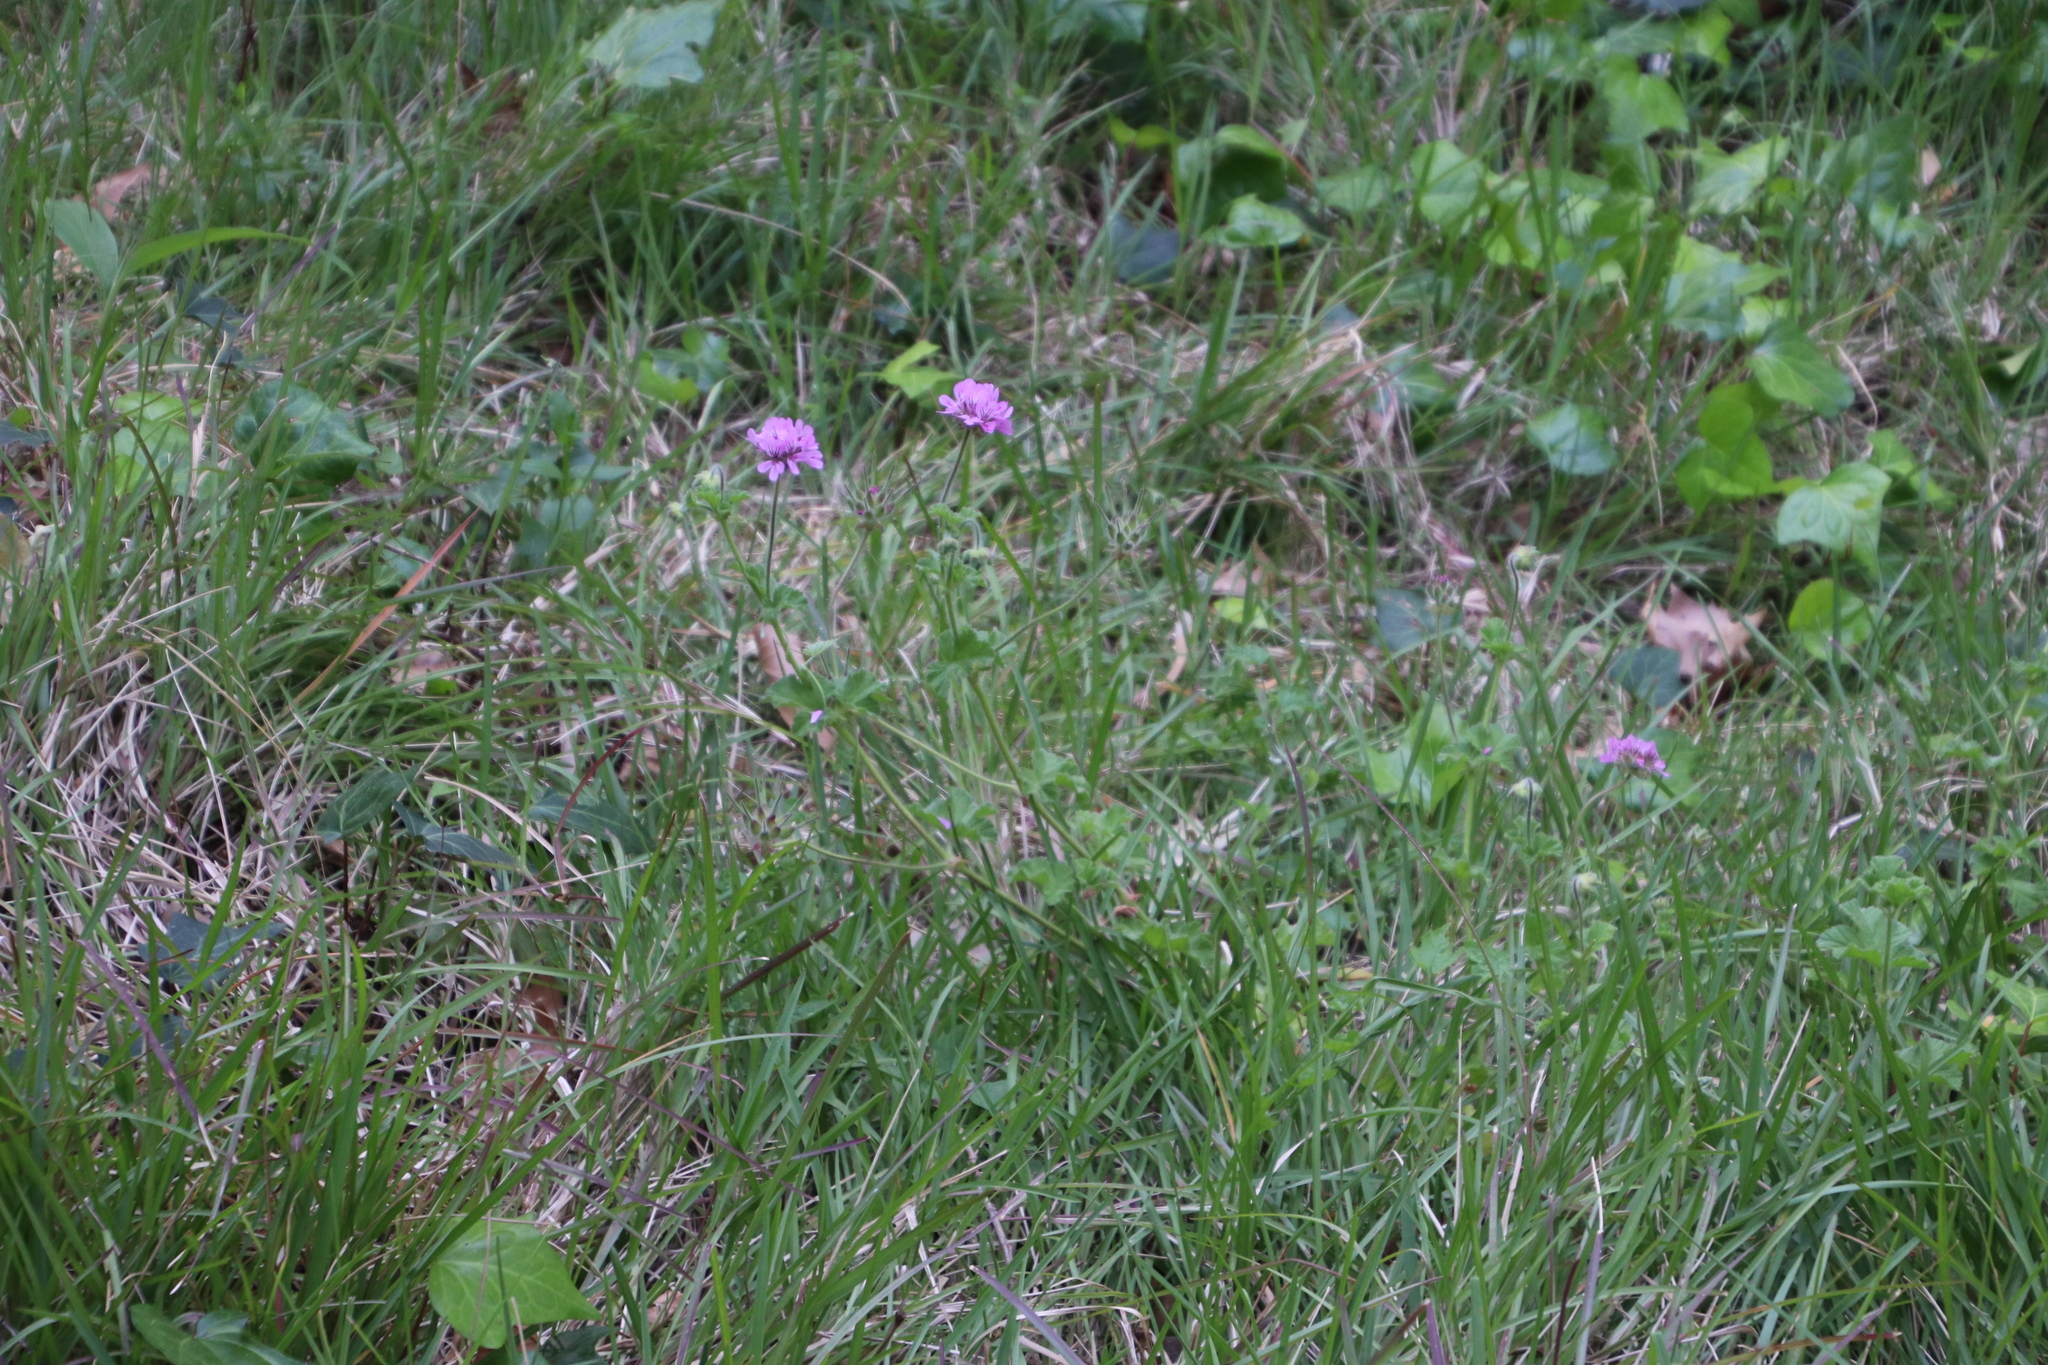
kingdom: Plantae
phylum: Tracheophyta
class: Magnoliopsida
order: Geraniales
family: Geraniaceae
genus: Pelargonium
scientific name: Pelargonium capitatum
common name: Rose scented geranium
